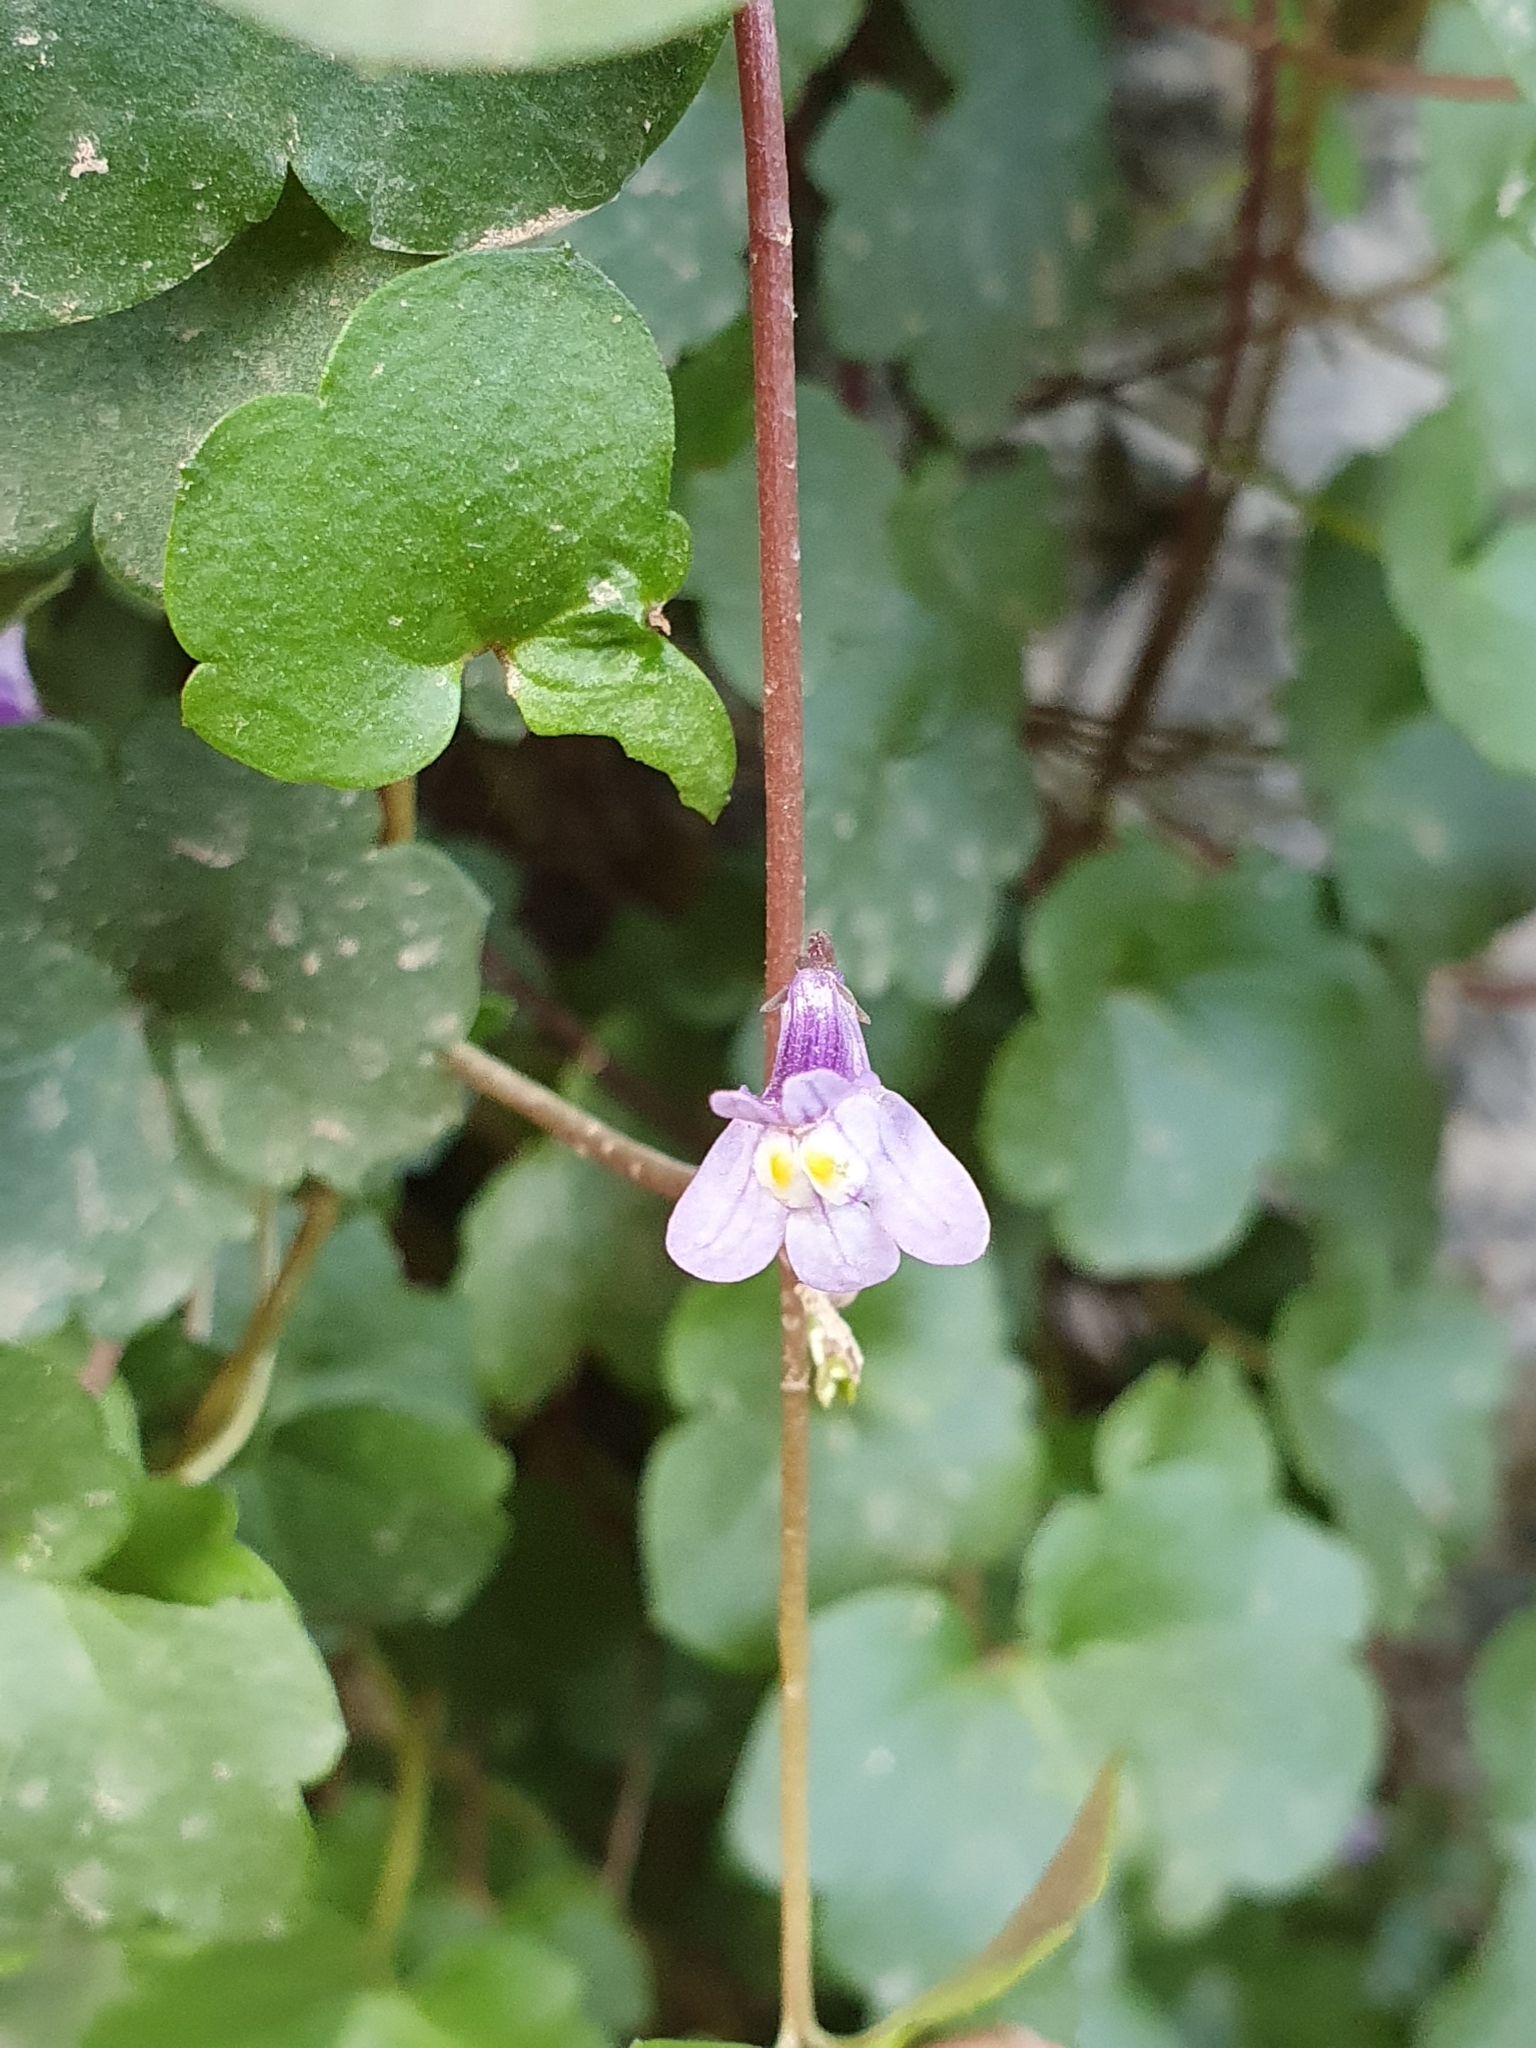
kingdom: Plantae
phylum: Tracheophyta
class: Magnoliopsida
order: Lamiales
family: Plantaginaceae
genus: Cymbalaria
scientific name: Cymbalaria muralis
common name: Ivy-leaved toadflax
